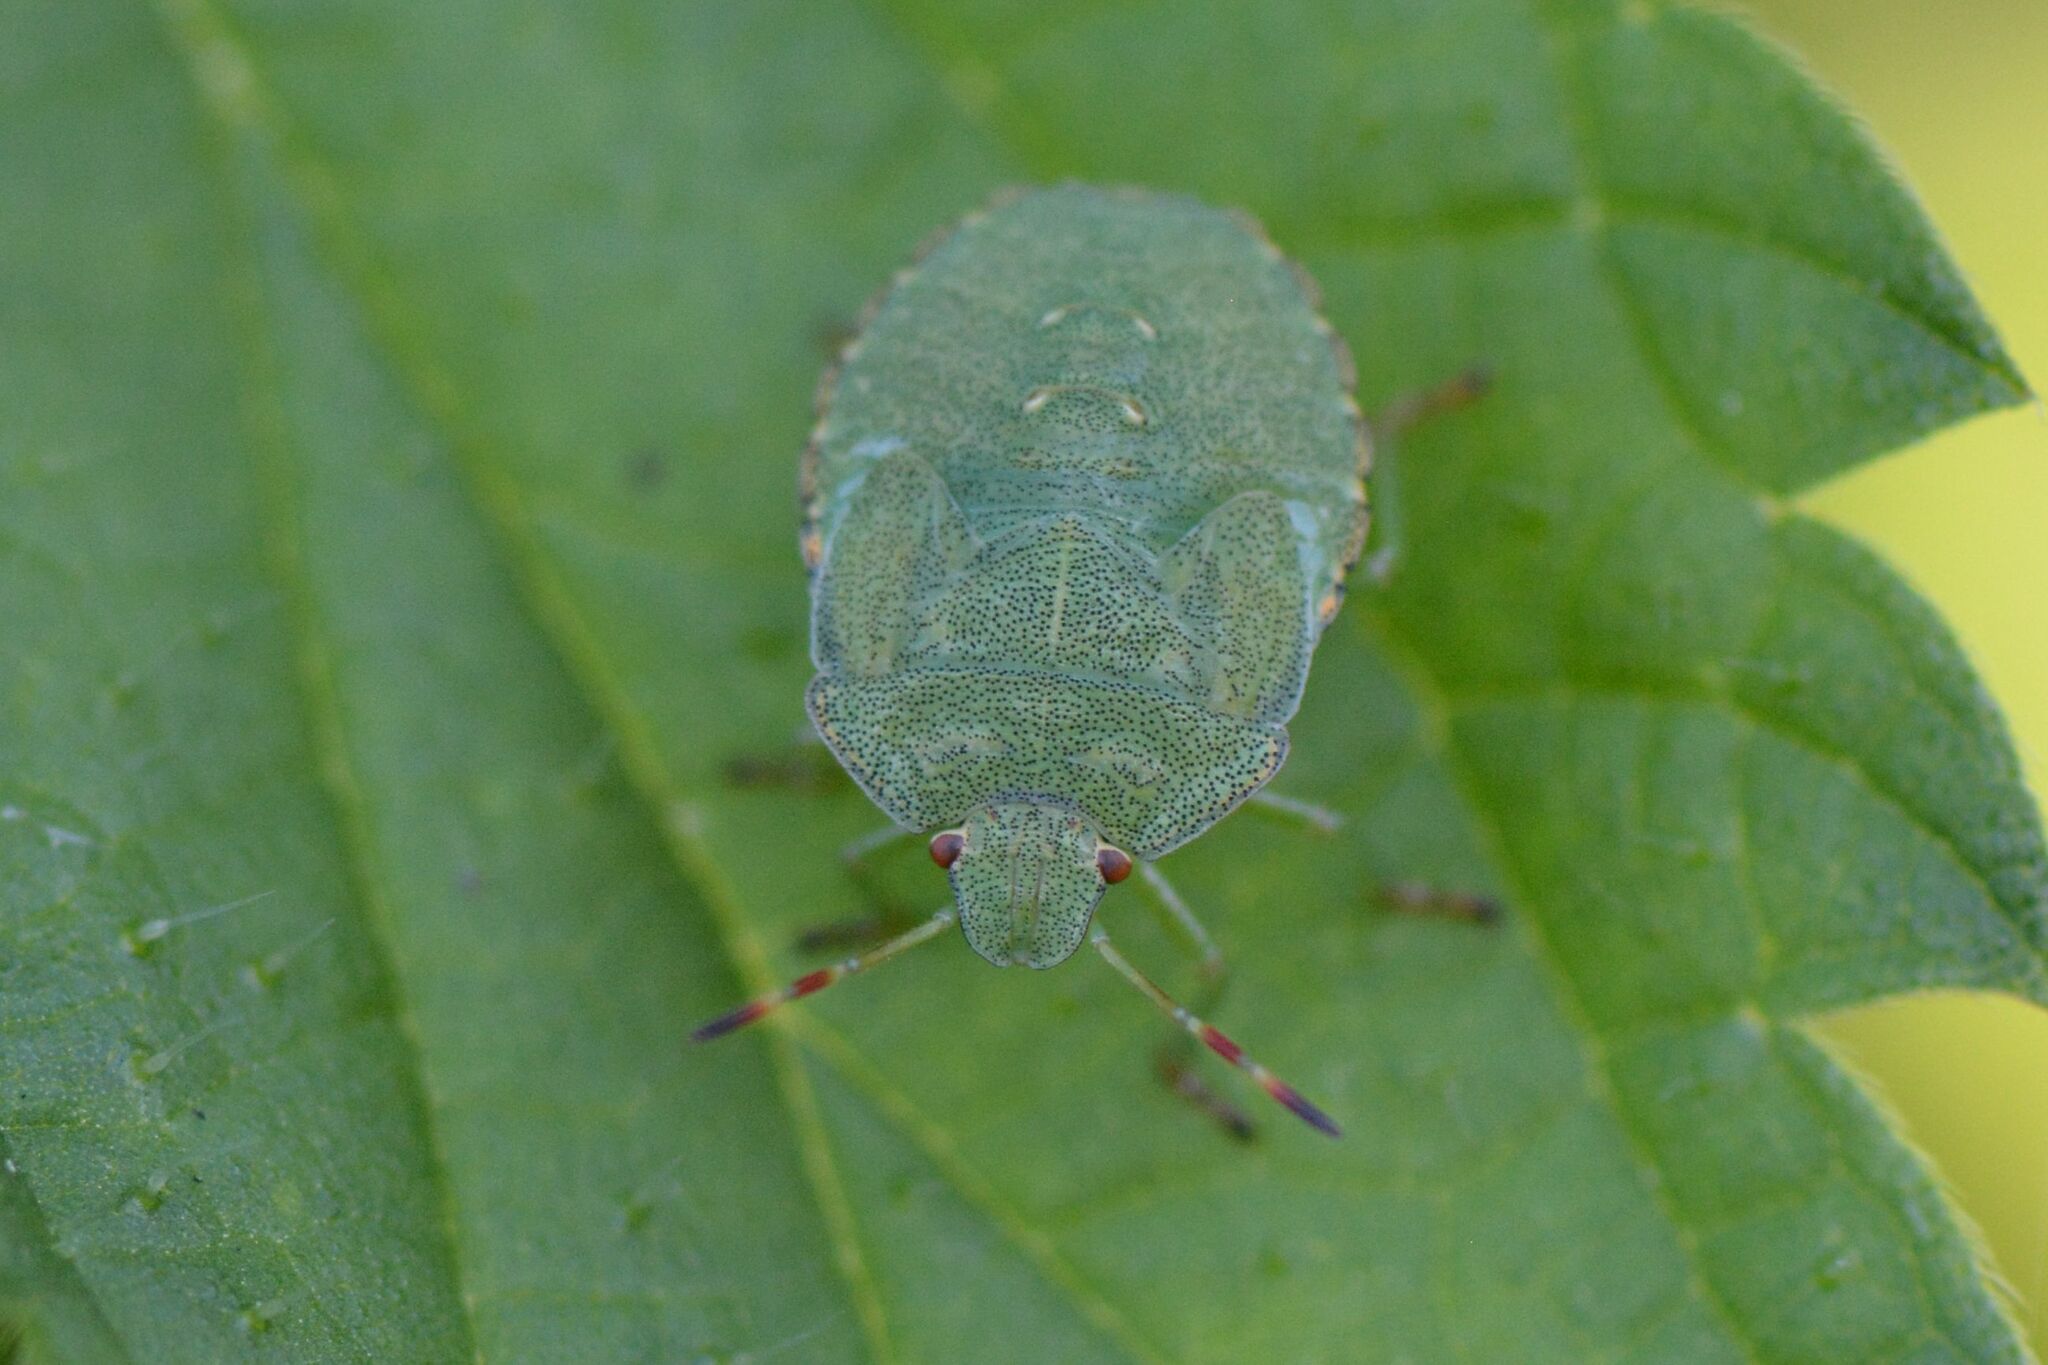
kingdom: Animalia
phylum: Arthropoda
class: Insecta
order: Hemiptera
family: Pentatomidae
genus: Palomena
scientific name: Palomena prasina
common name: Green shieldbug
